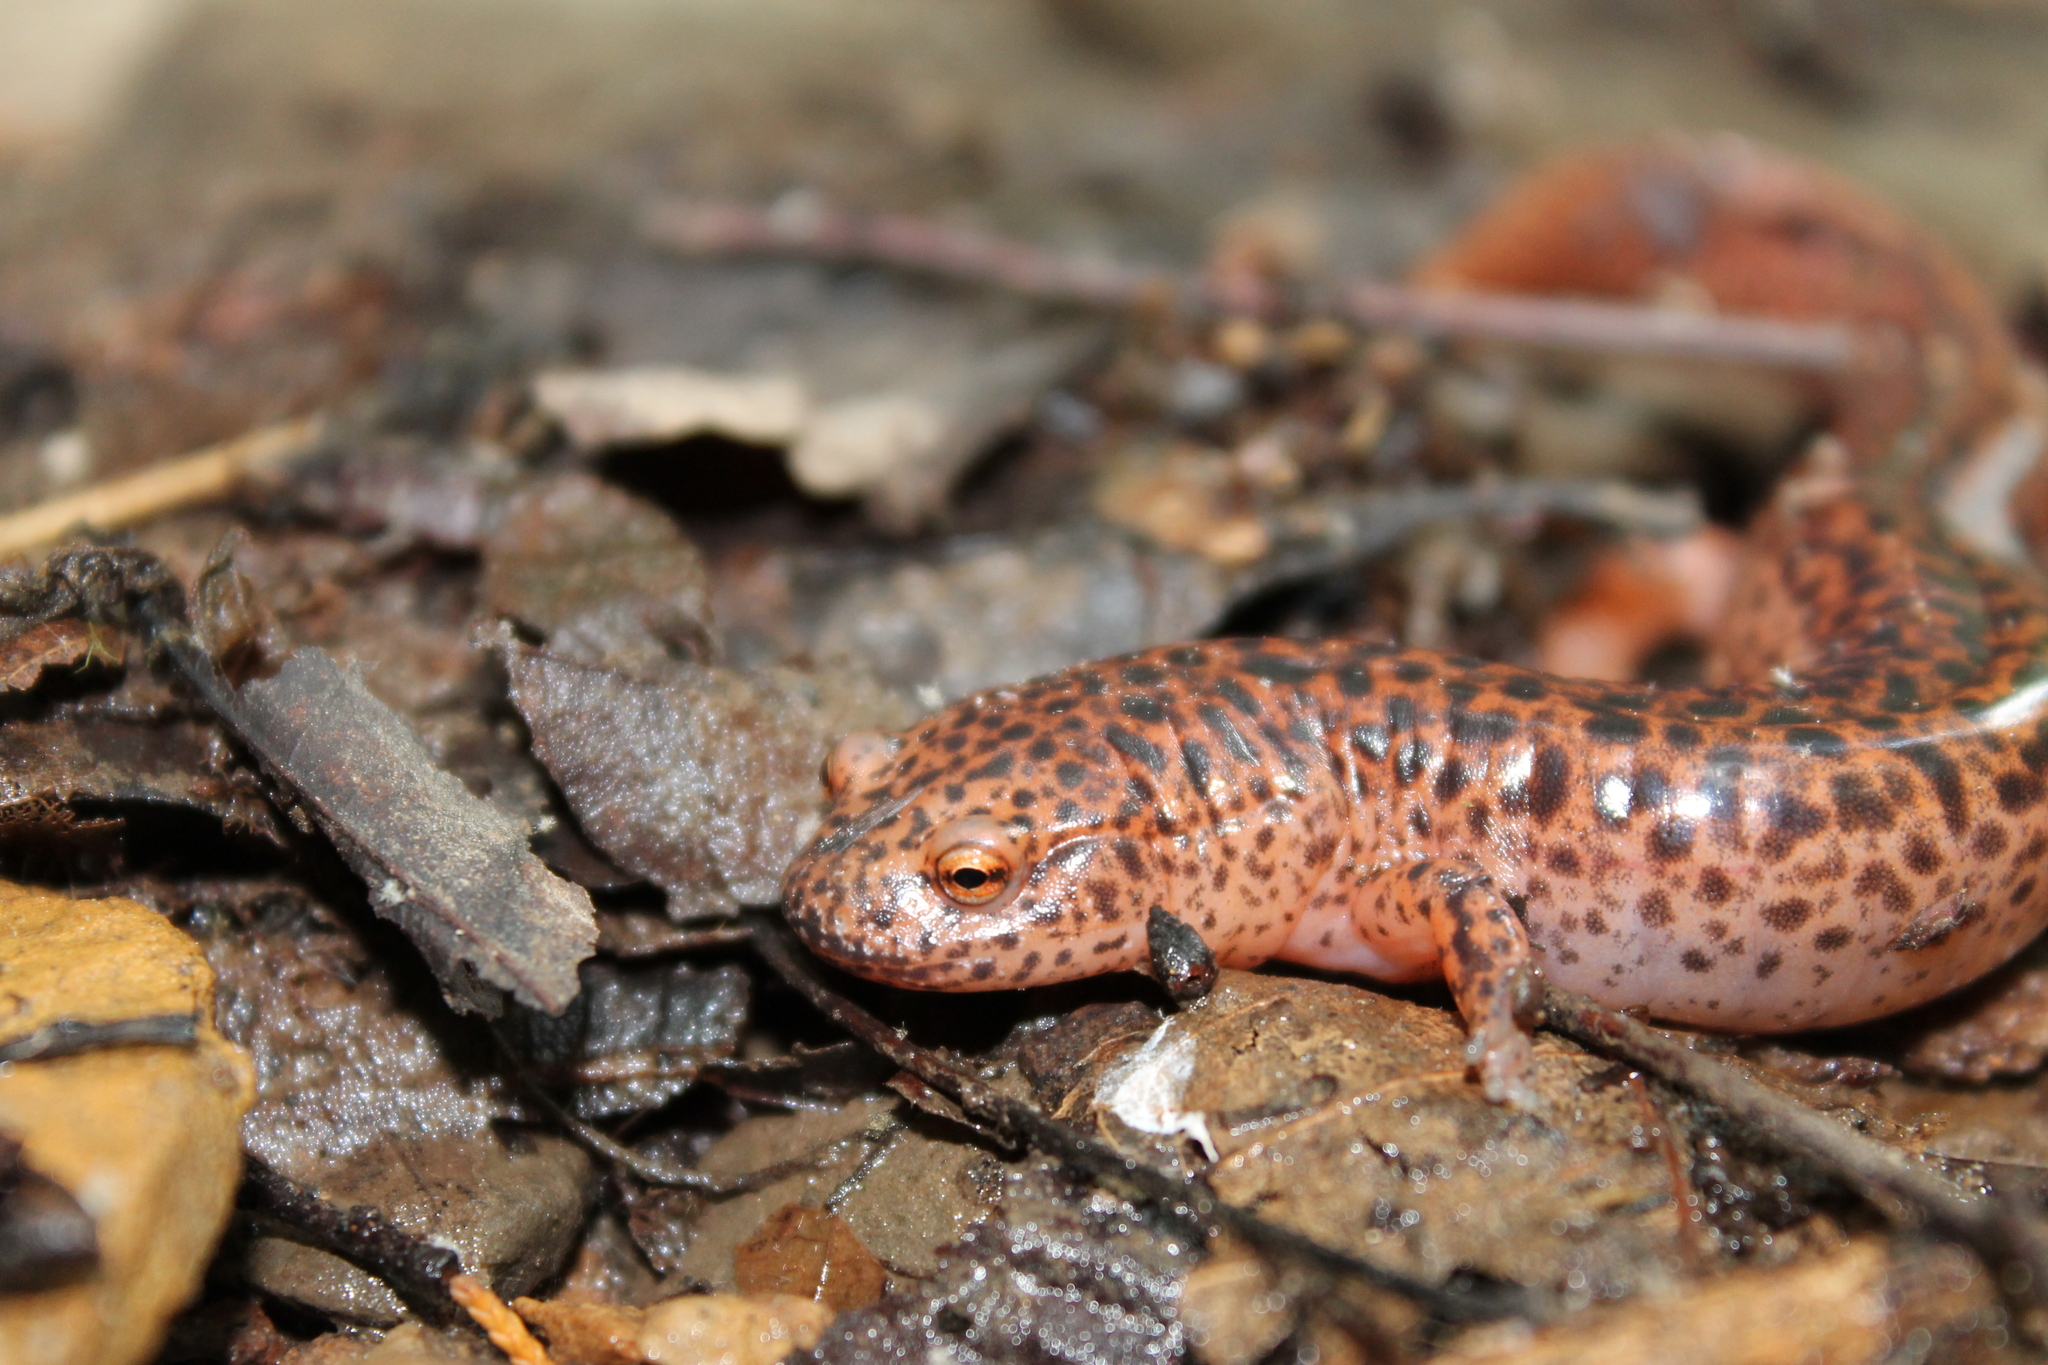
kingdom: Animalia
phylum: Chordata
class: Amphibia
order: Caudata
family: Plethodontidae
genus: Pseudotriton
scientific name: Pseudotriton ruber
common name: Red salamander
